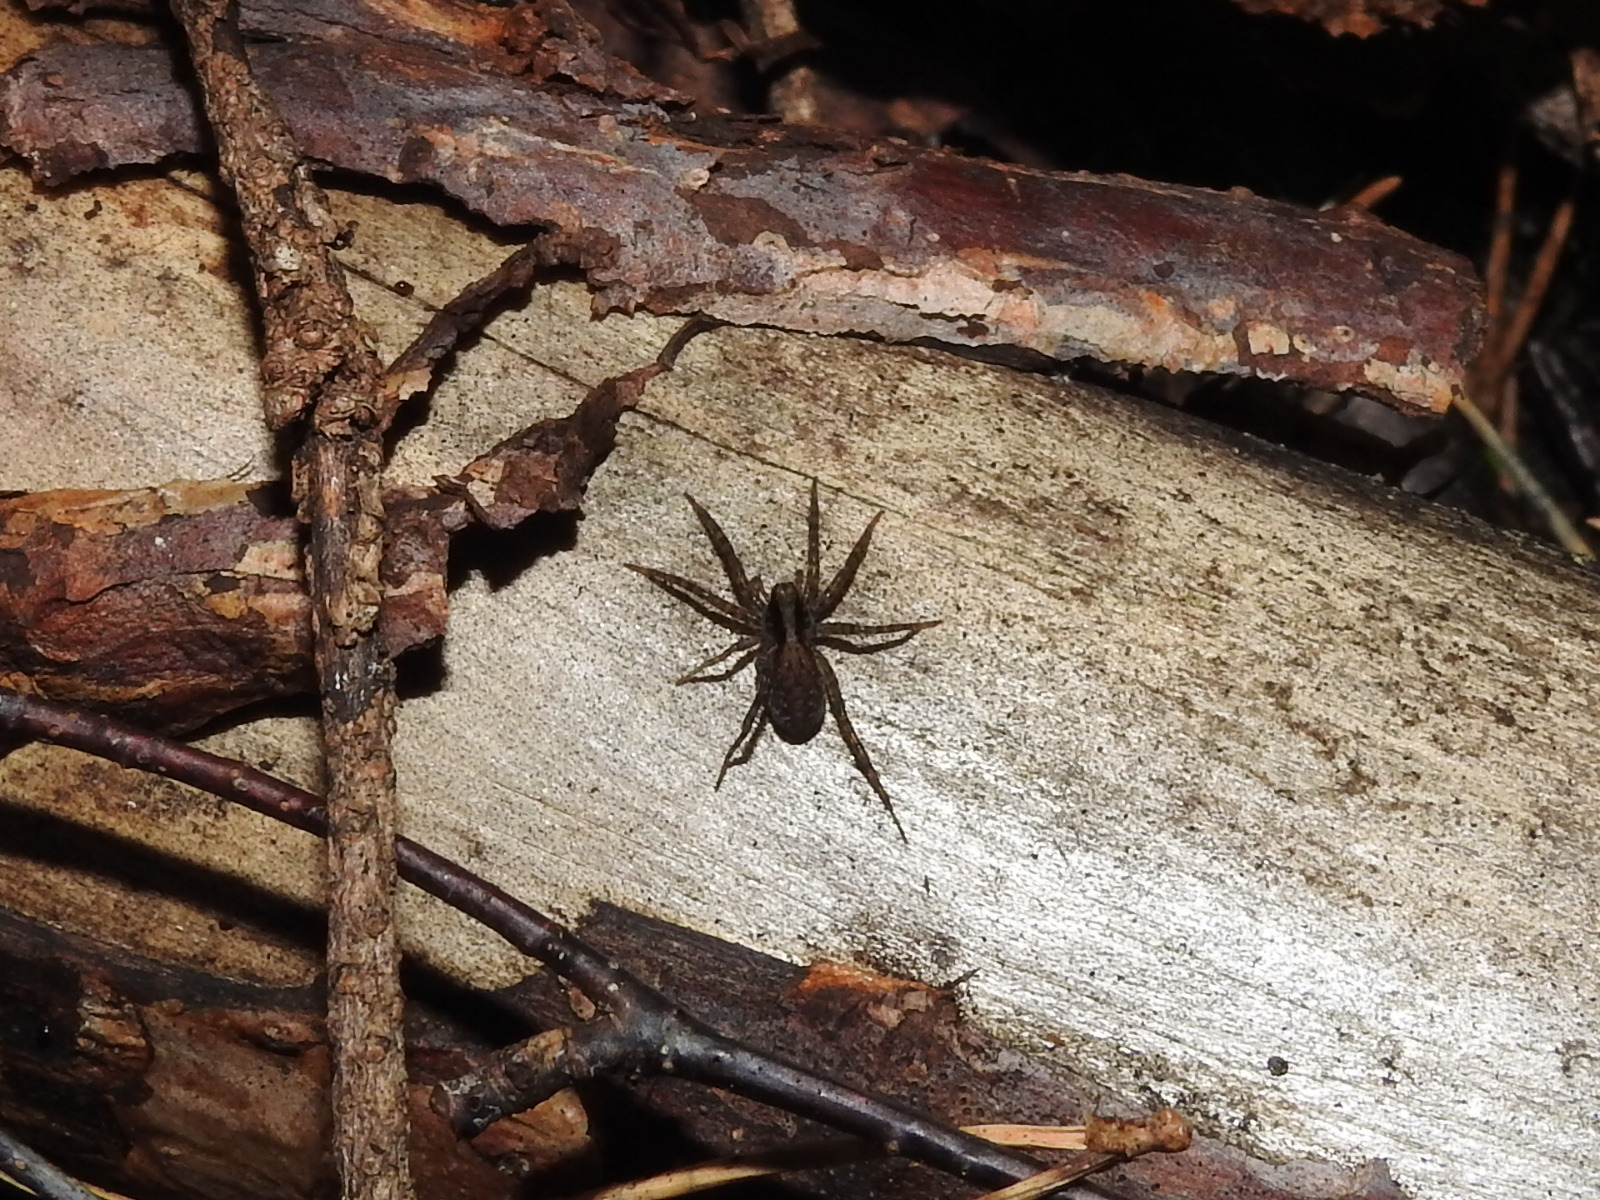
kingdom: Animalia
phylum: Arthropoda
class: Arachnida
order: Araneae
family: Lycosidae
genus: Pardosa
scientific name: Pardosa
